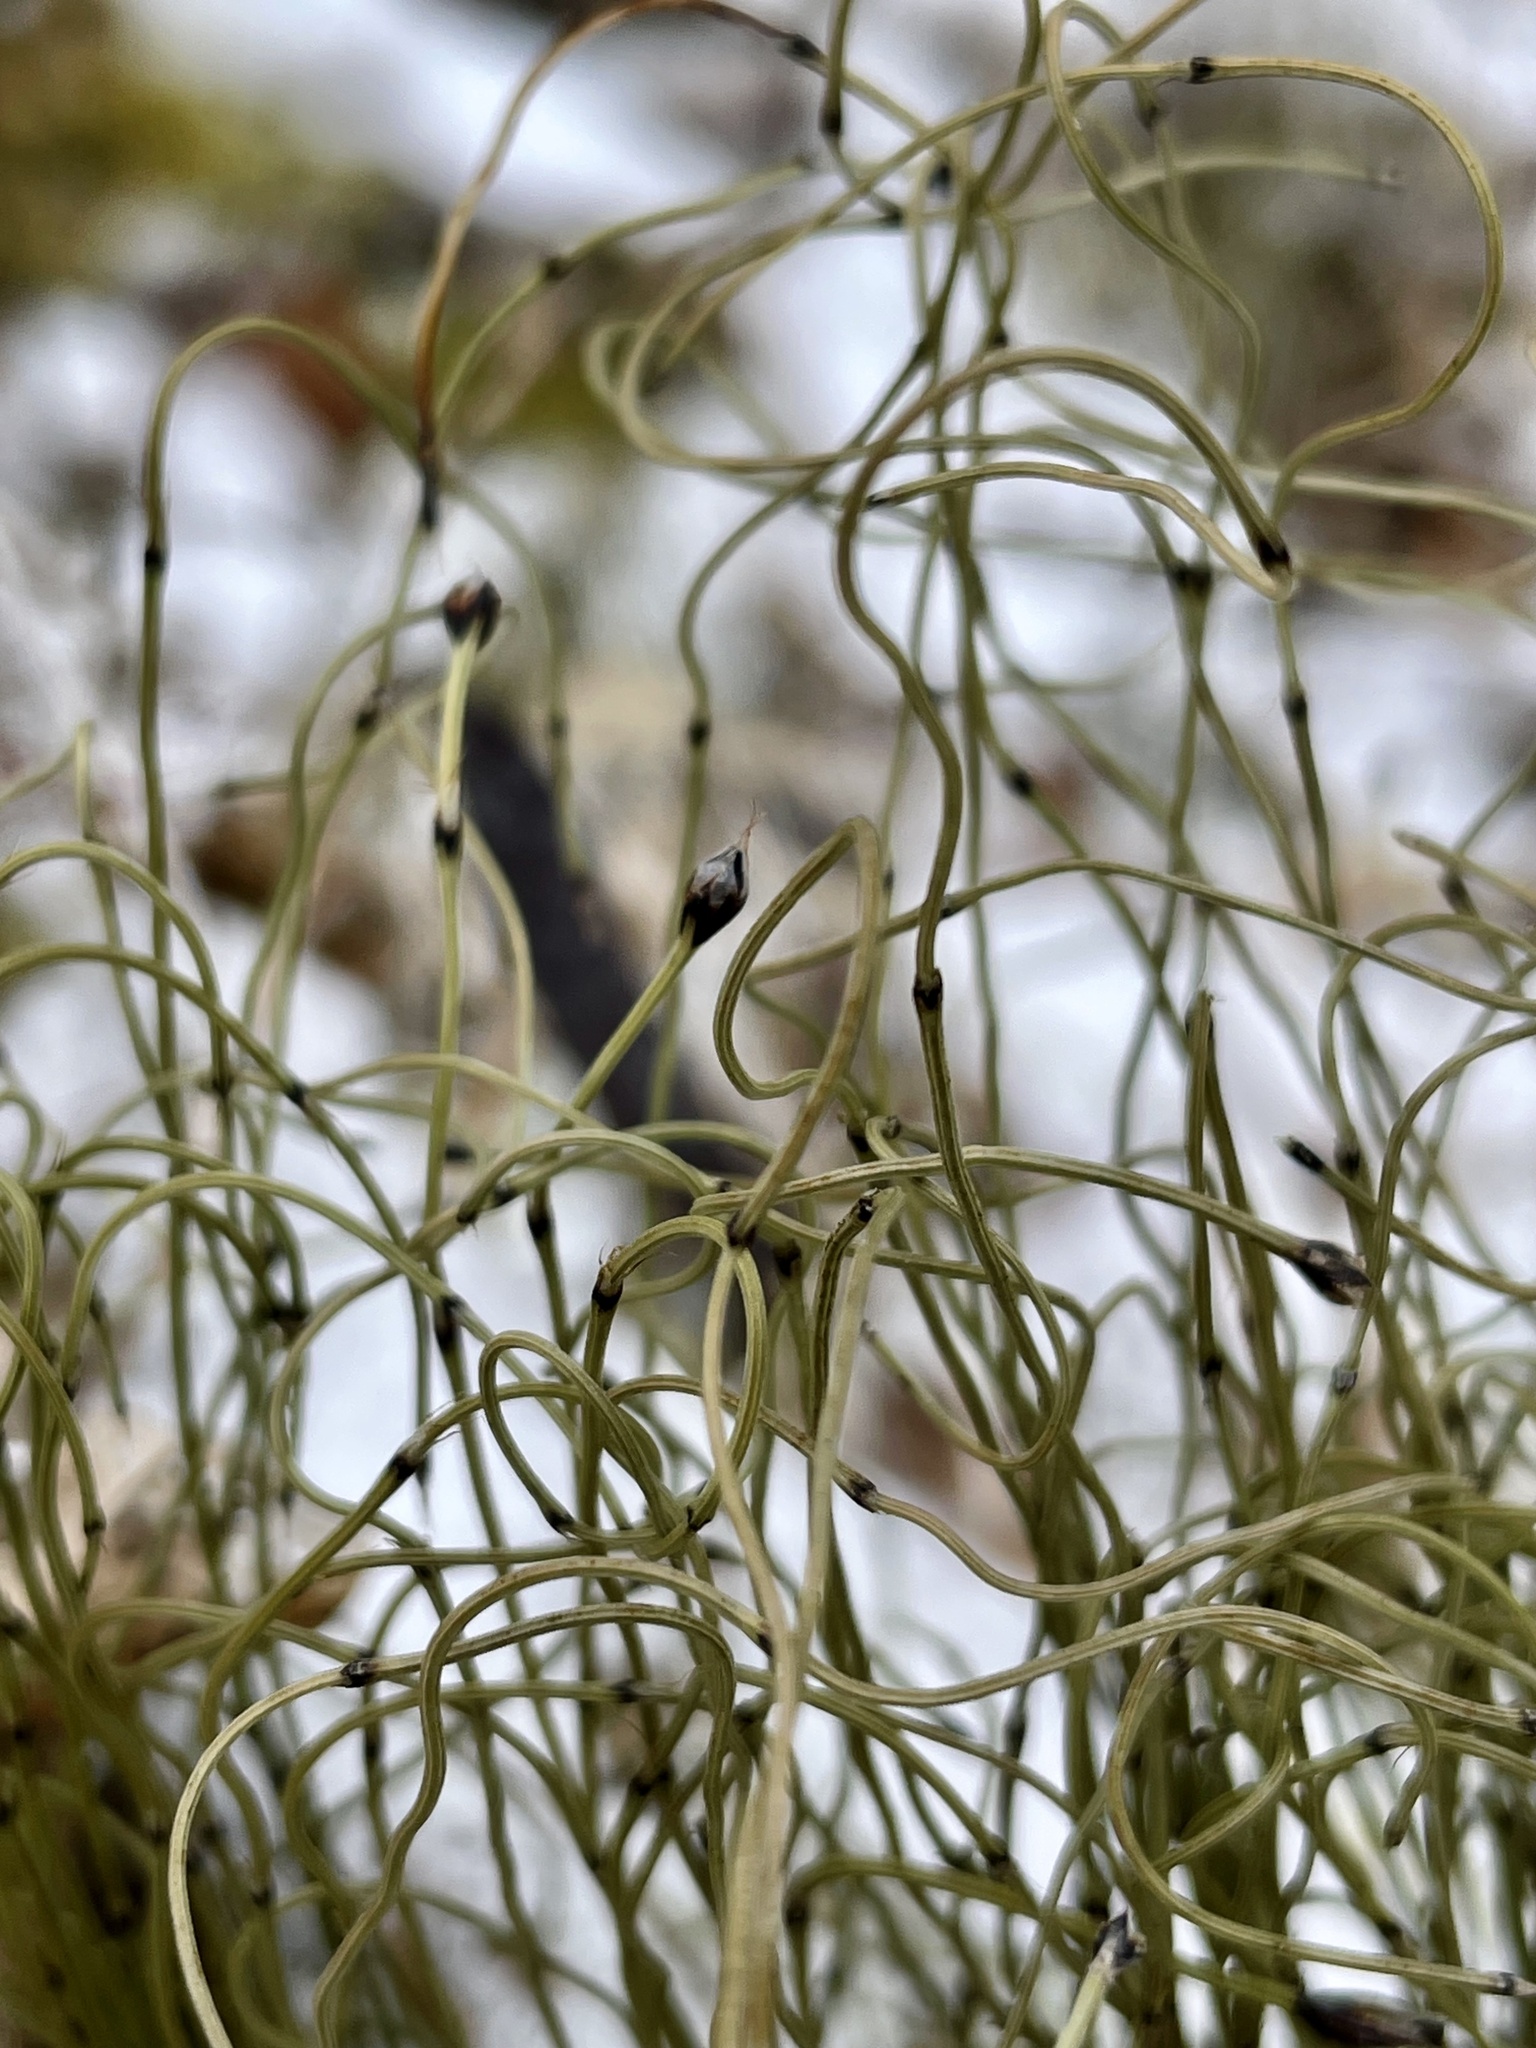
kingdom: Plantae
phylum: Tracheophyta
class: Polypodiopsida
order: Equisetales
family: Equisetaceae
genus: Equisetum
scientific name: Equisetum scirpoides
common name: Delicate horsetail
